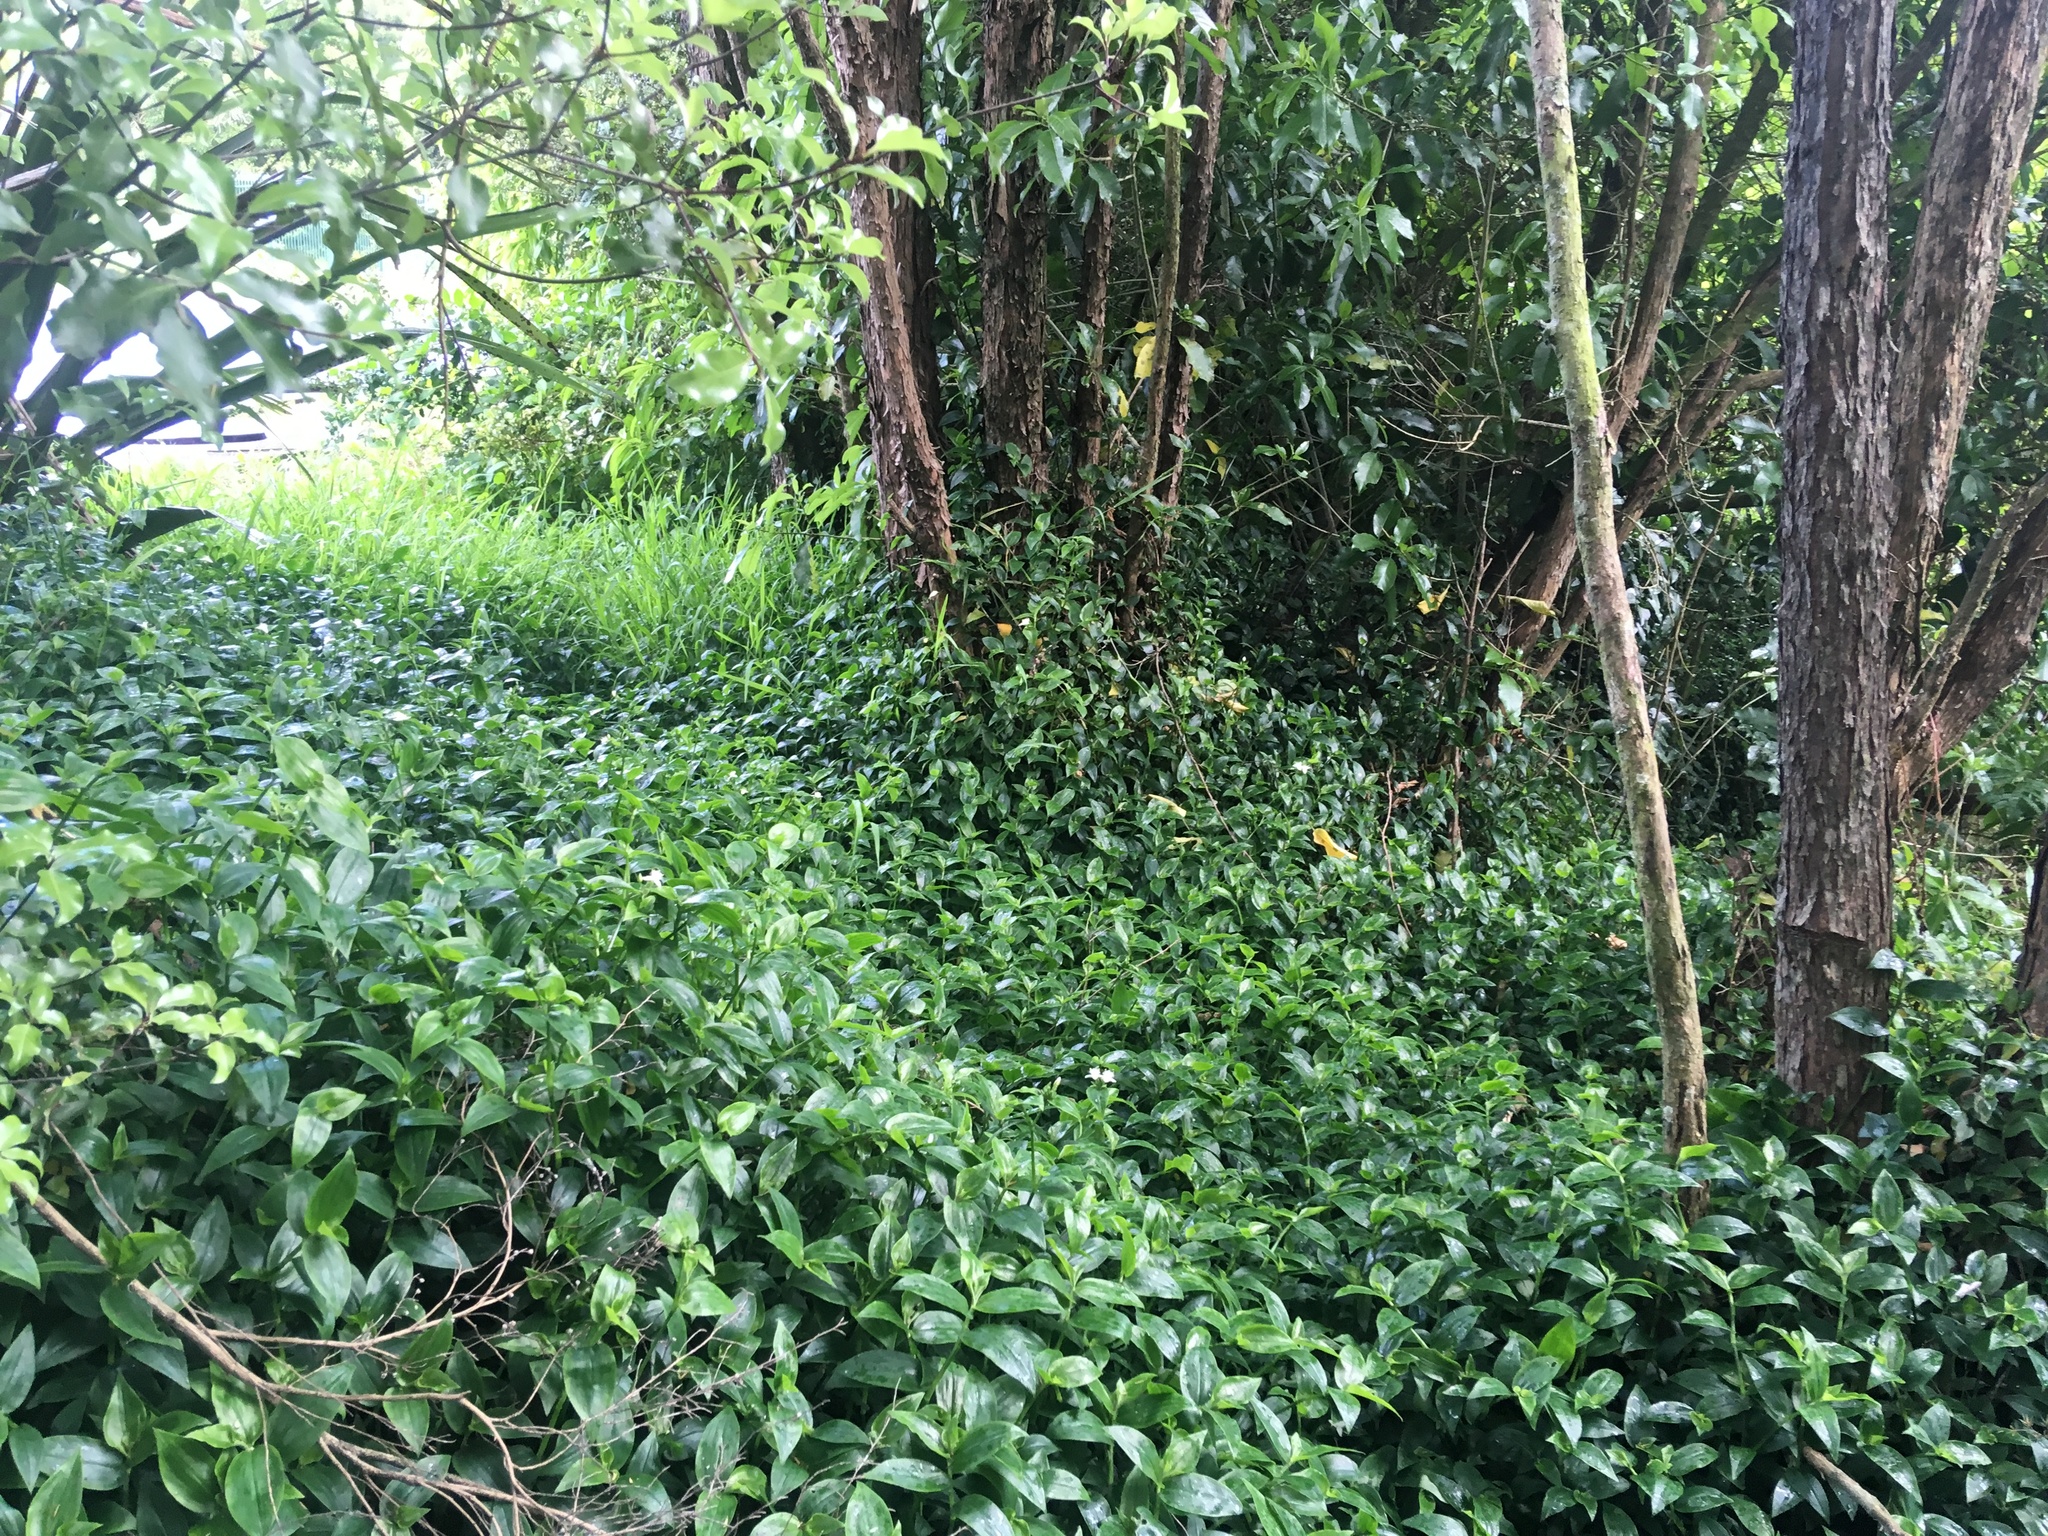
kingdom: Plantae
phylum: Tracheophyta
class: Liliopsida
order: Commelinales
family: Commelinaceae
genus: Tradescantia
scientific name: Tradescantia fluminensis
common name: Wandering-jew
